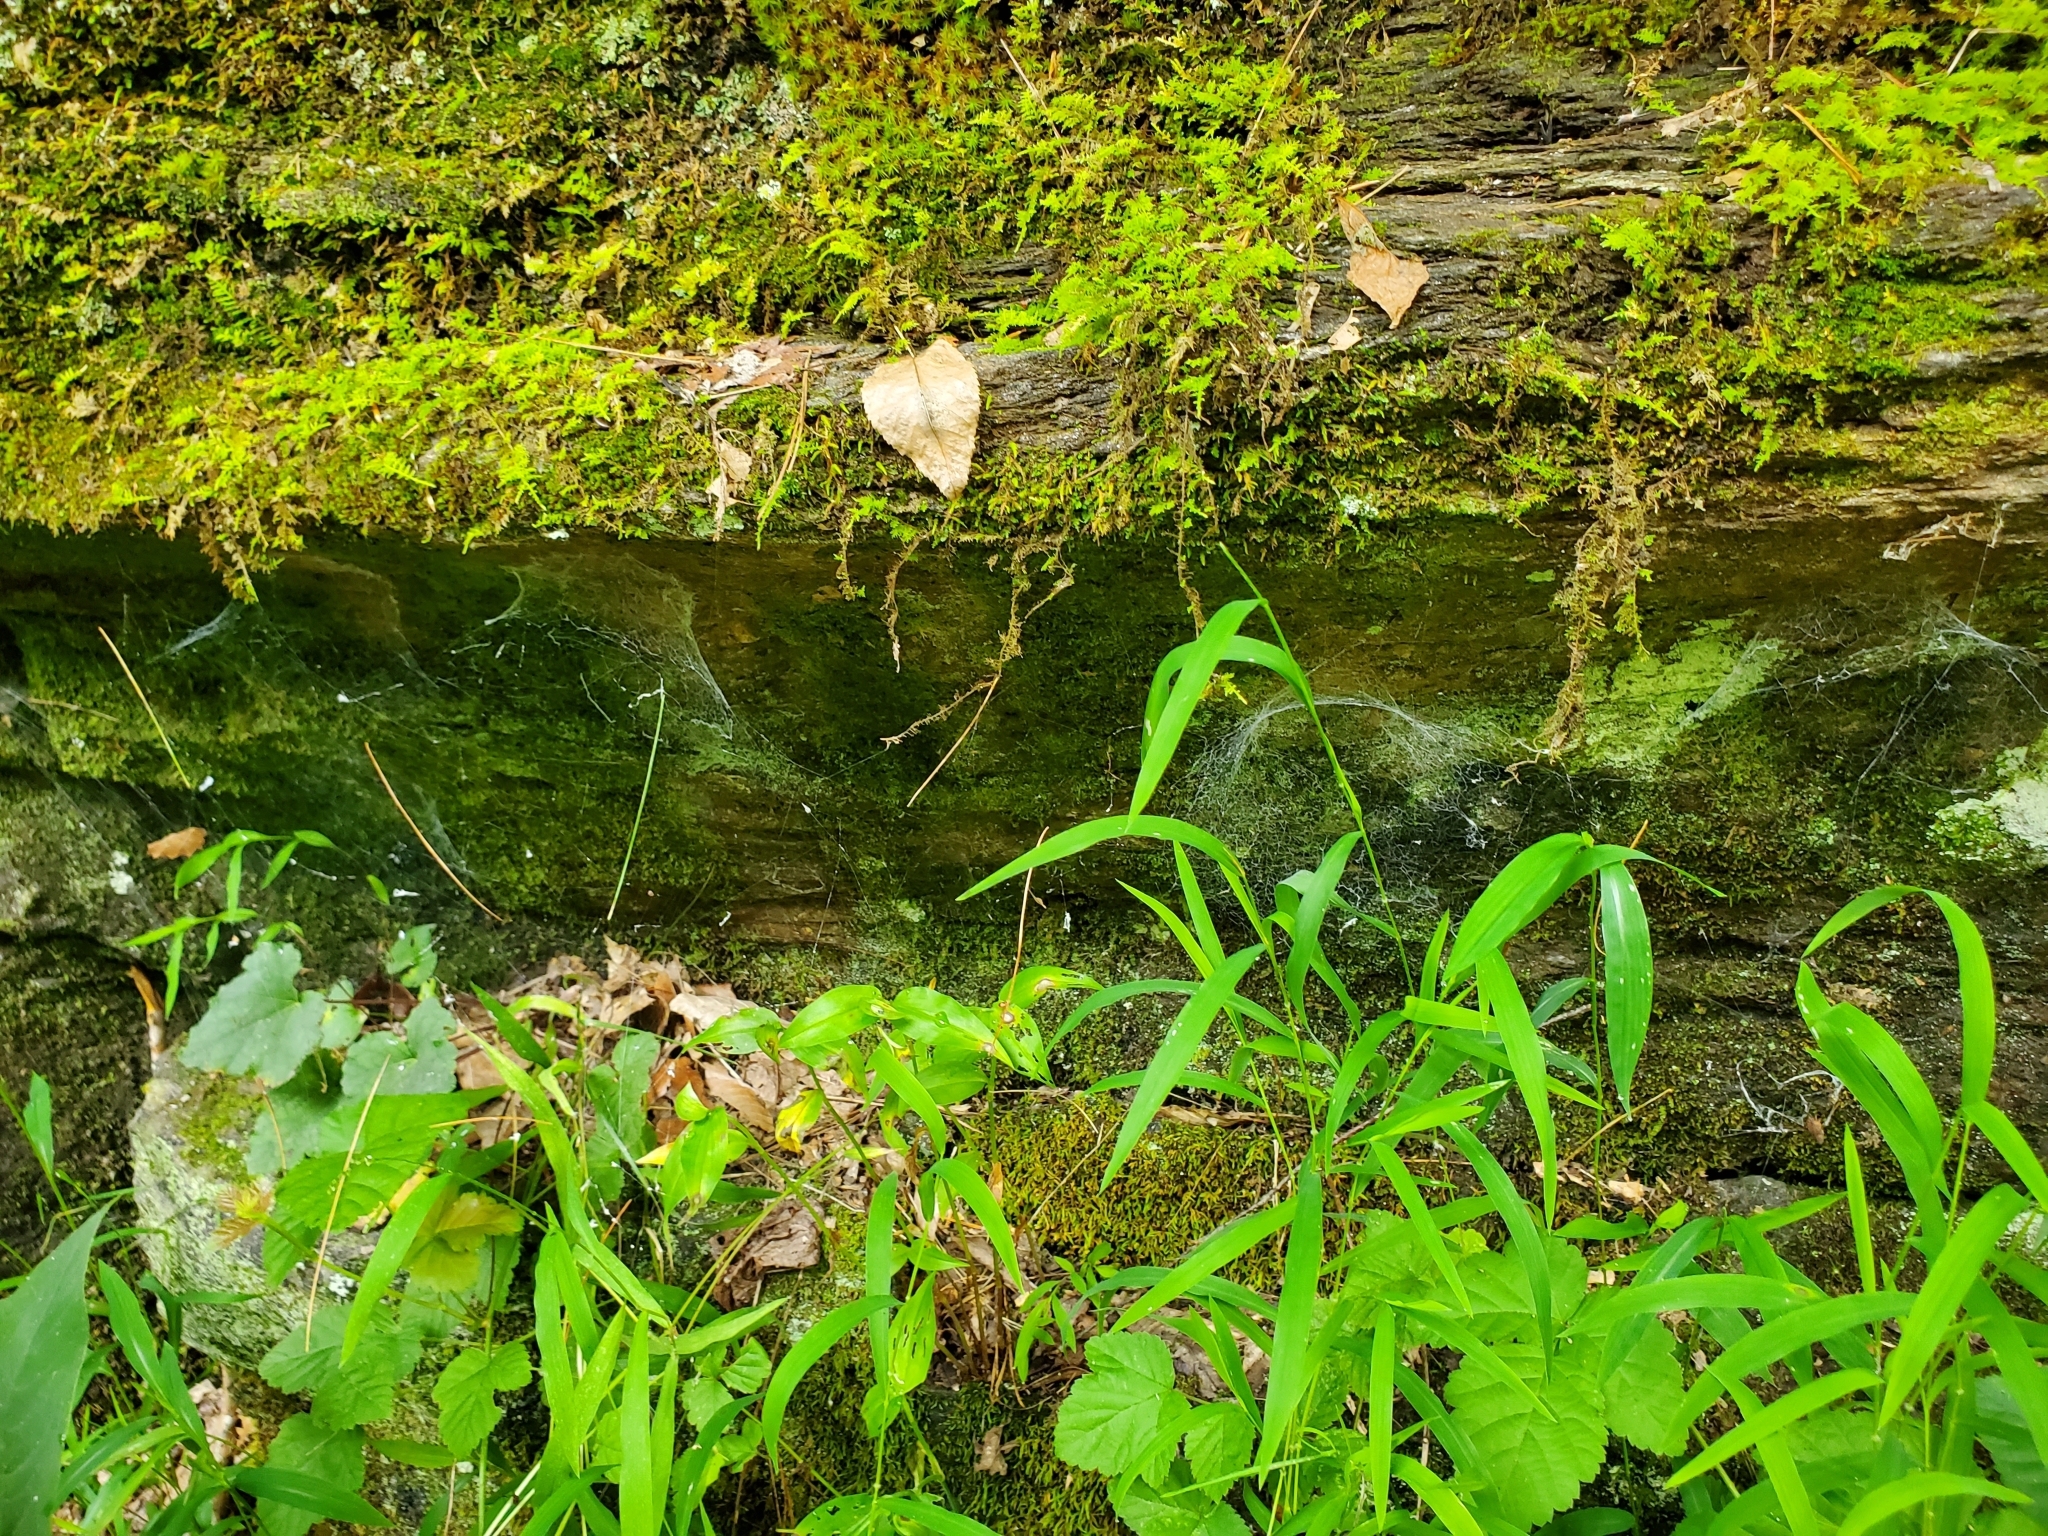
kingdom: Animalia
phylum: Arthropoda
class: Arachnida
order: Araneae
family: Hypochilidae
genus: Hypochilus
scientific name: Hypochilus pococki
